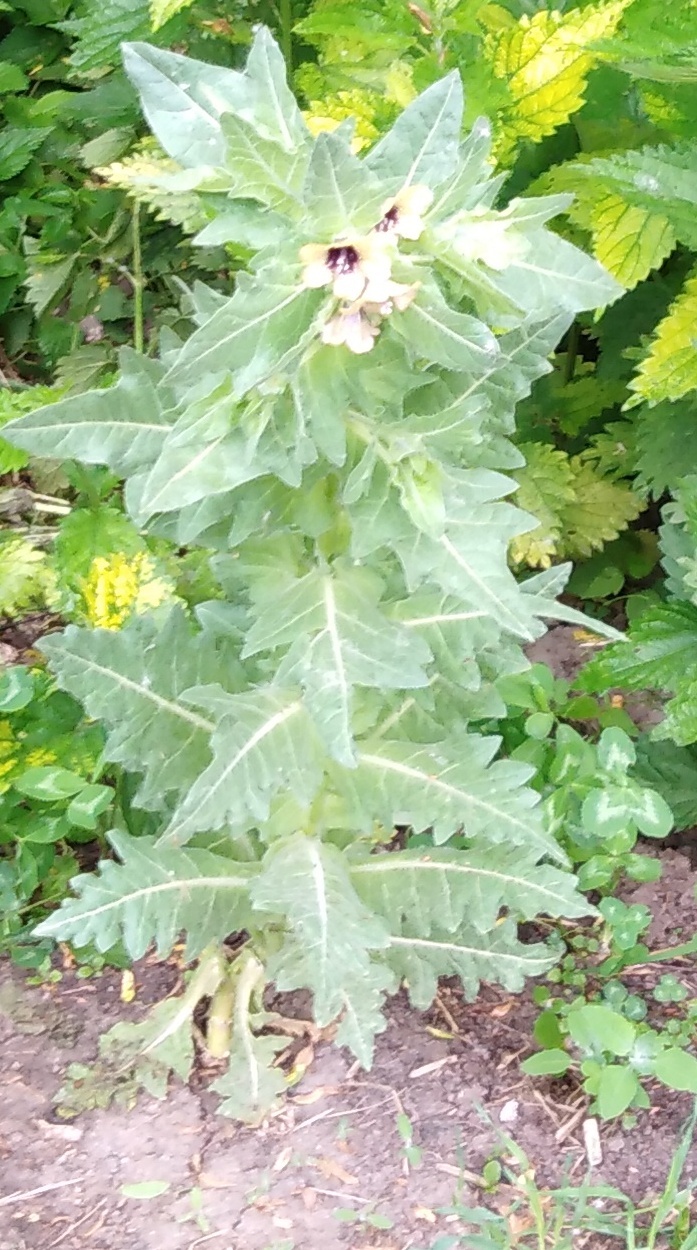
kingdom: Plantae
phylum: Tracheophyta
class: Magnoliopsida
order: Solanales
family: Solanaceae
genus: Hyoscyamus
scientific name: Hyoscyamus niger
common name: Henbane
